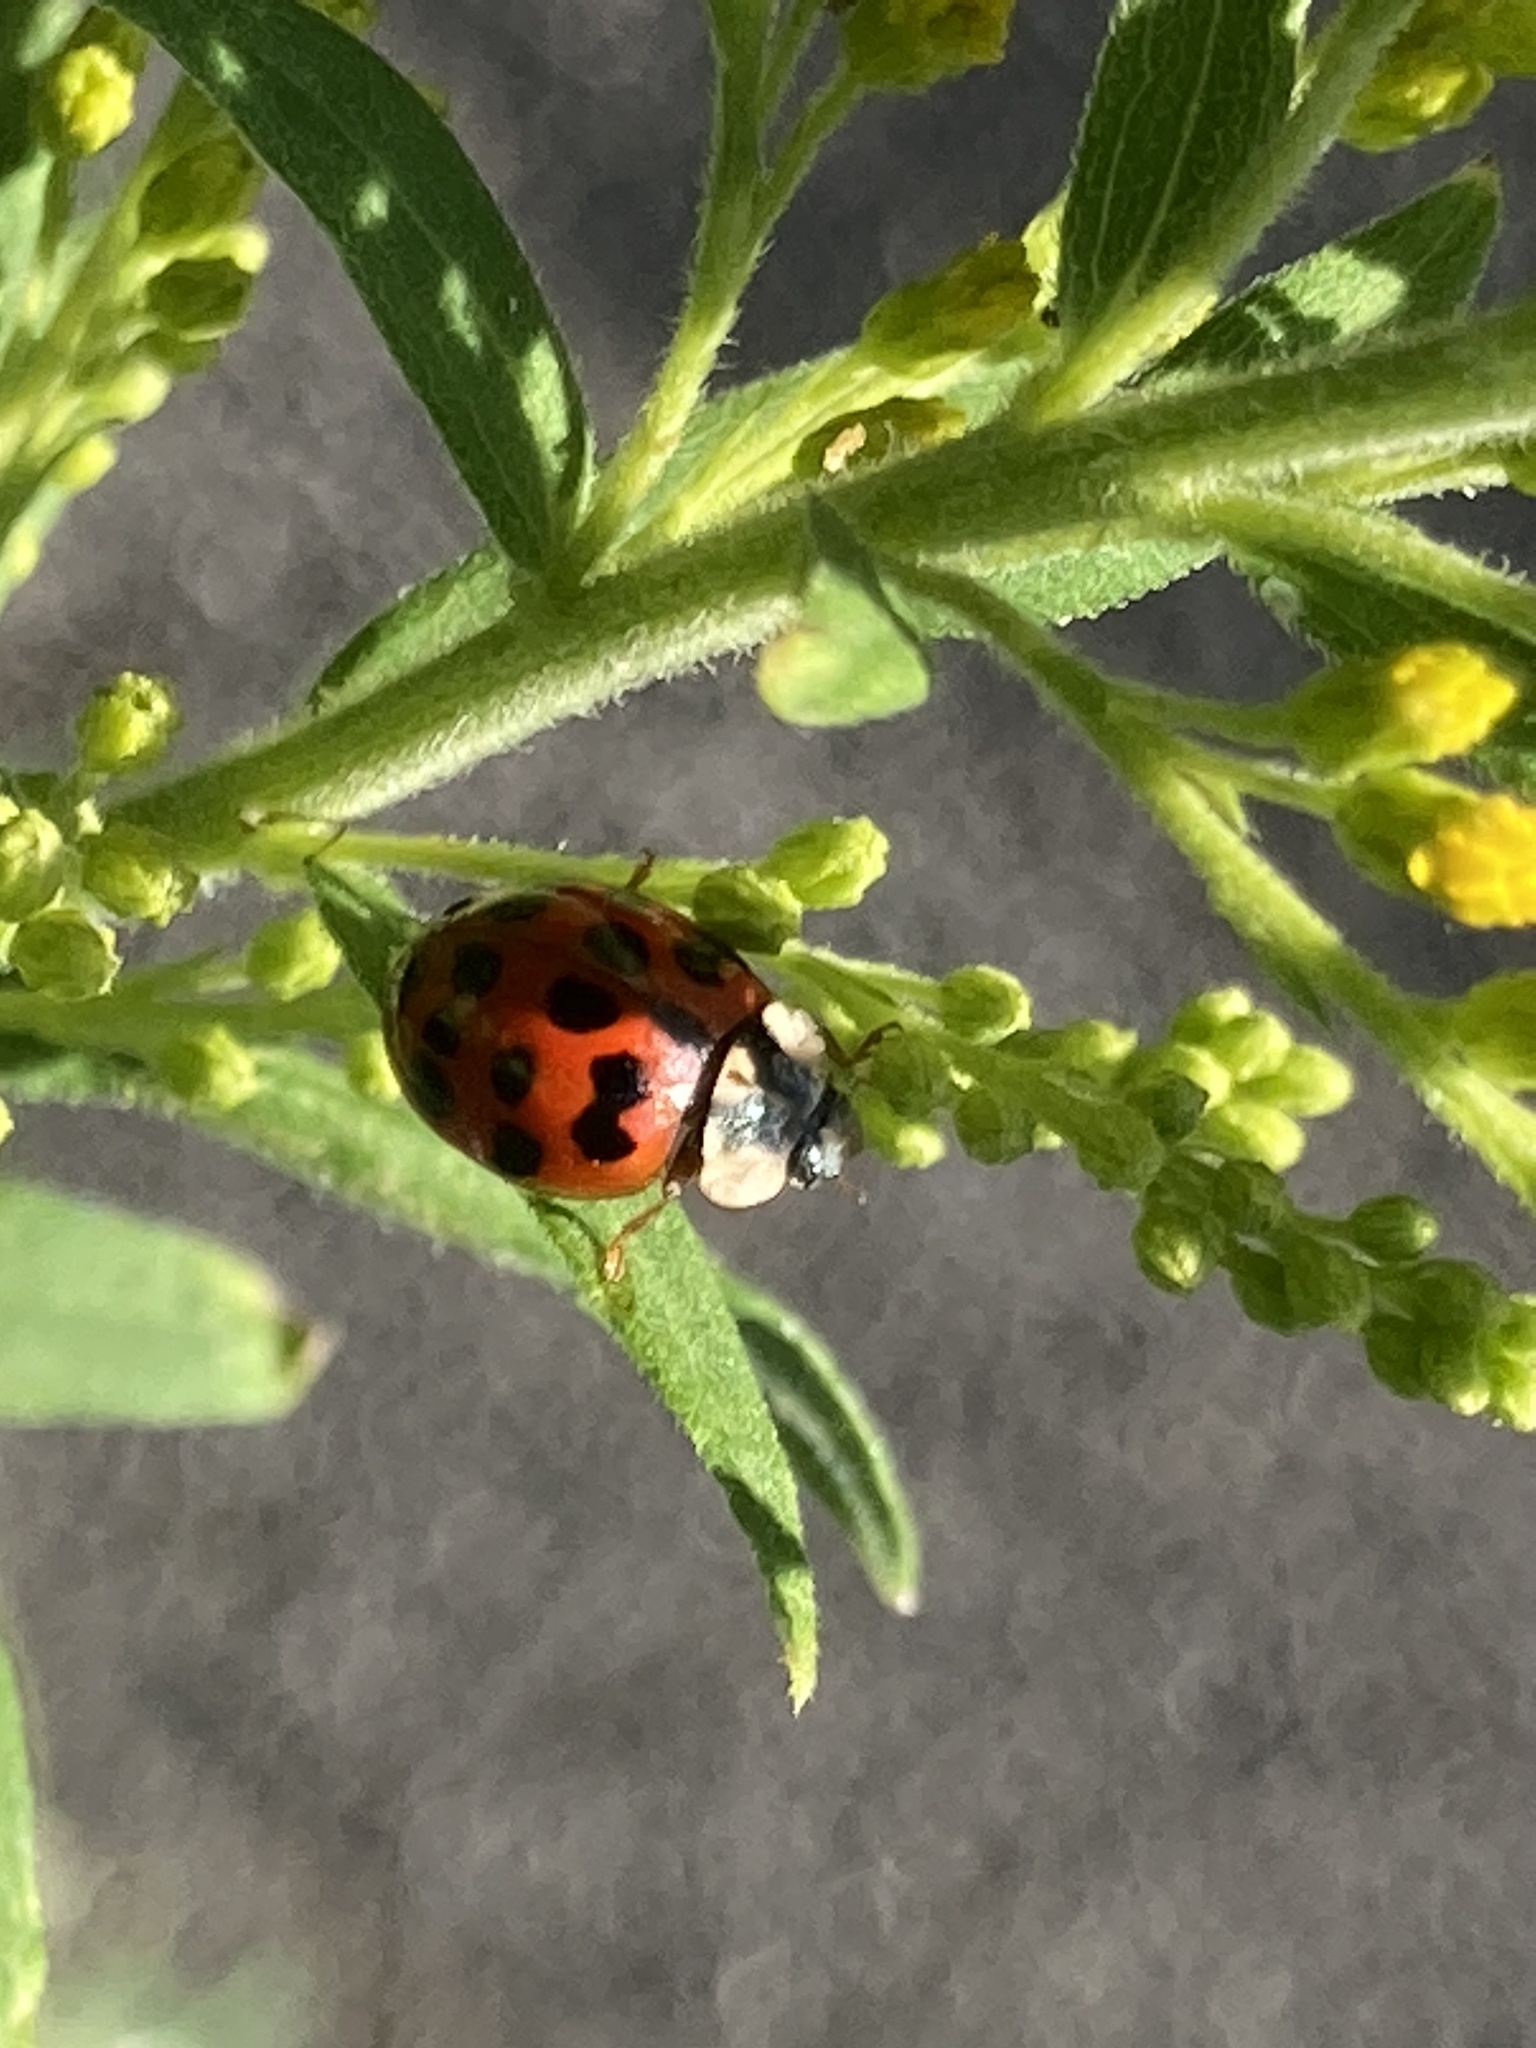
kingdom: Animalia
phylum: Arthropoda
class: Insecta
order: Coleoptera
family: Coccinellidae
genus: Harmonia
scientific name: Harmonia axyridis
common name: Harlequin ladybird
